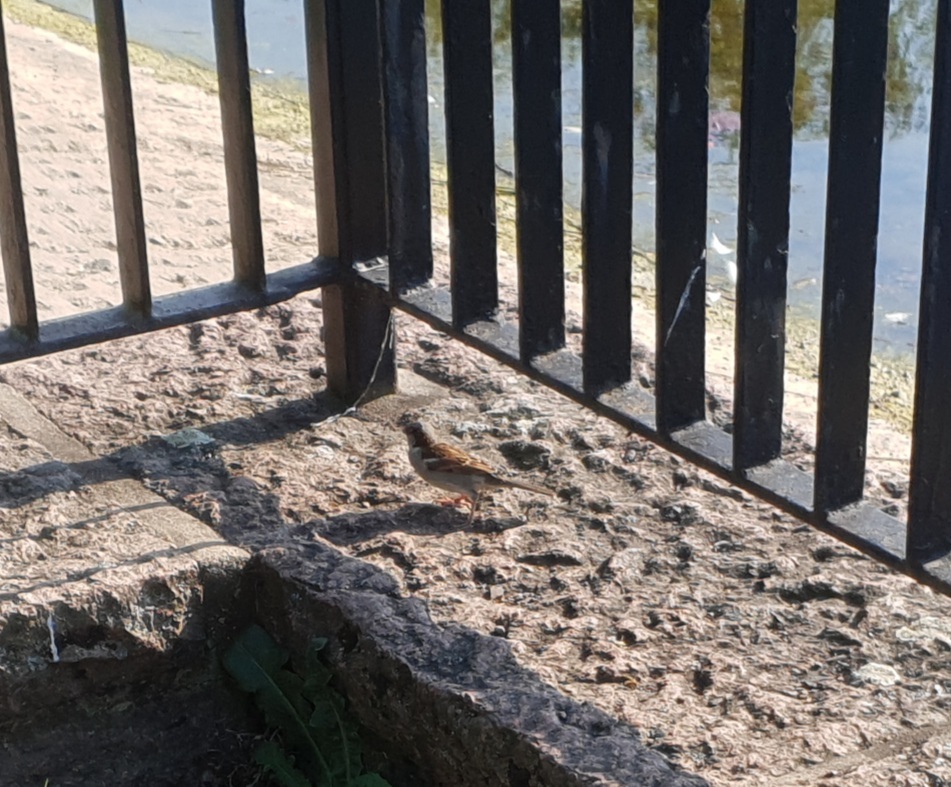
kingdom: Animalia
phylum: Chordata
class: Aves
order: Passeriformes
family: Passeridae
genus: Passer
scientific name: Passer domesticus
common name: House sparrow
